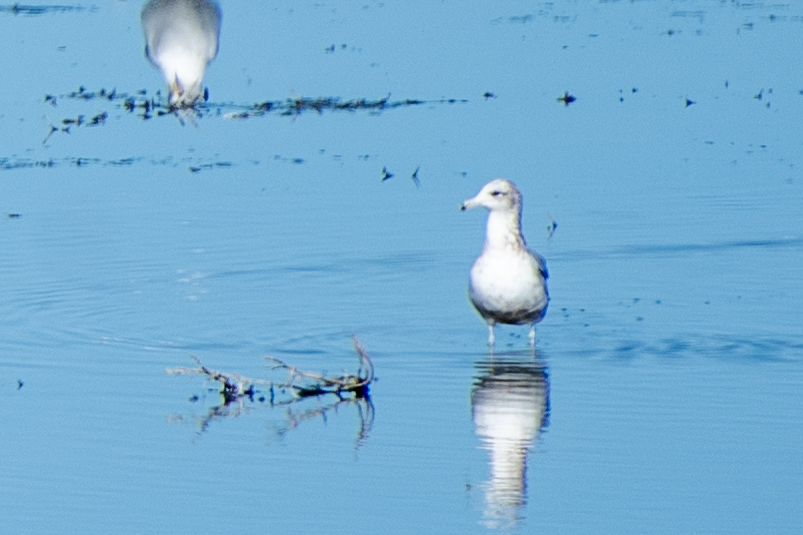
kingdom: Animalia
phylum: Chordata
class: Aves
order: Charadriiformes
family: Laridae
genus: Larus
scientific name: Larus californicus
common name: California gull
